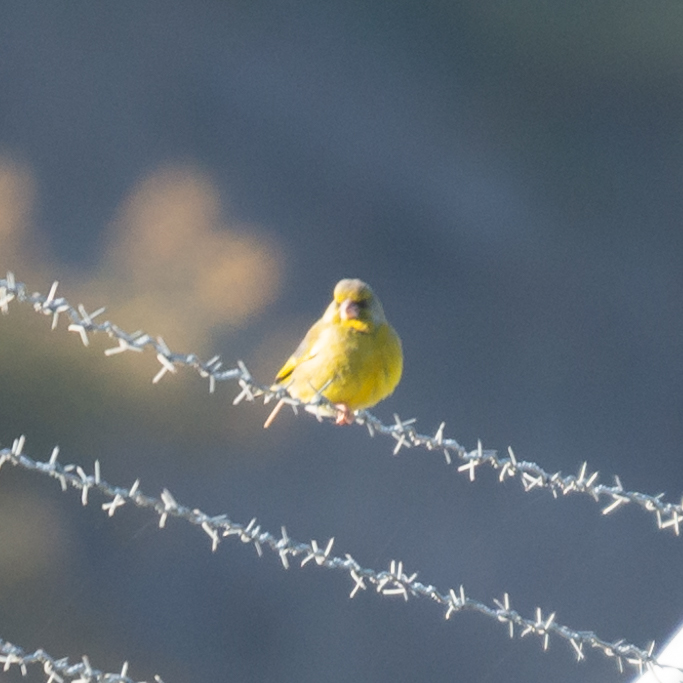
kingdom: Plantae
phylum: Tracheophyta
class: Liliopsida
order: Poales
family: Poaceae
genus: Chloris
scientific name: Chloris chloris
